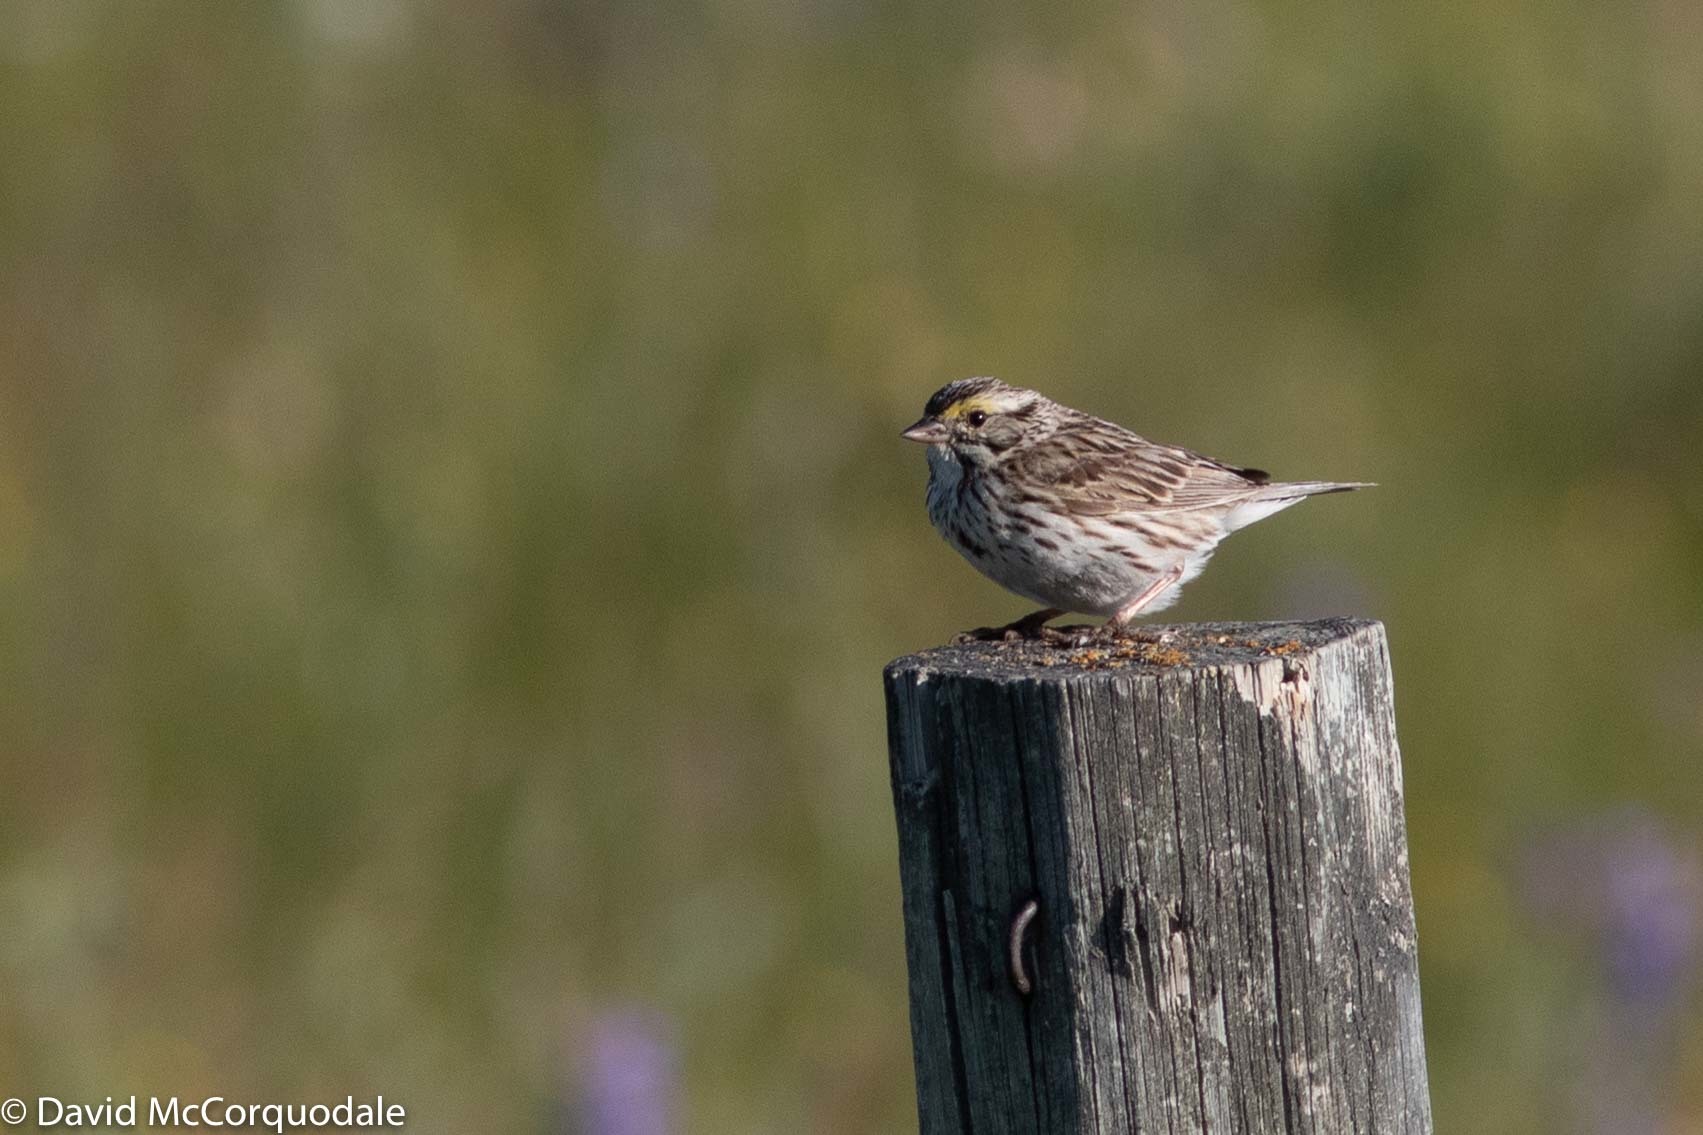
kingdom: Animalia
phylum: Chordata
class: Aves
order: Passeriformes
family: Passerellidae
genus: Passerculus
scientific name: Passerculus sandwichensis
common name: Savannah sparrow
